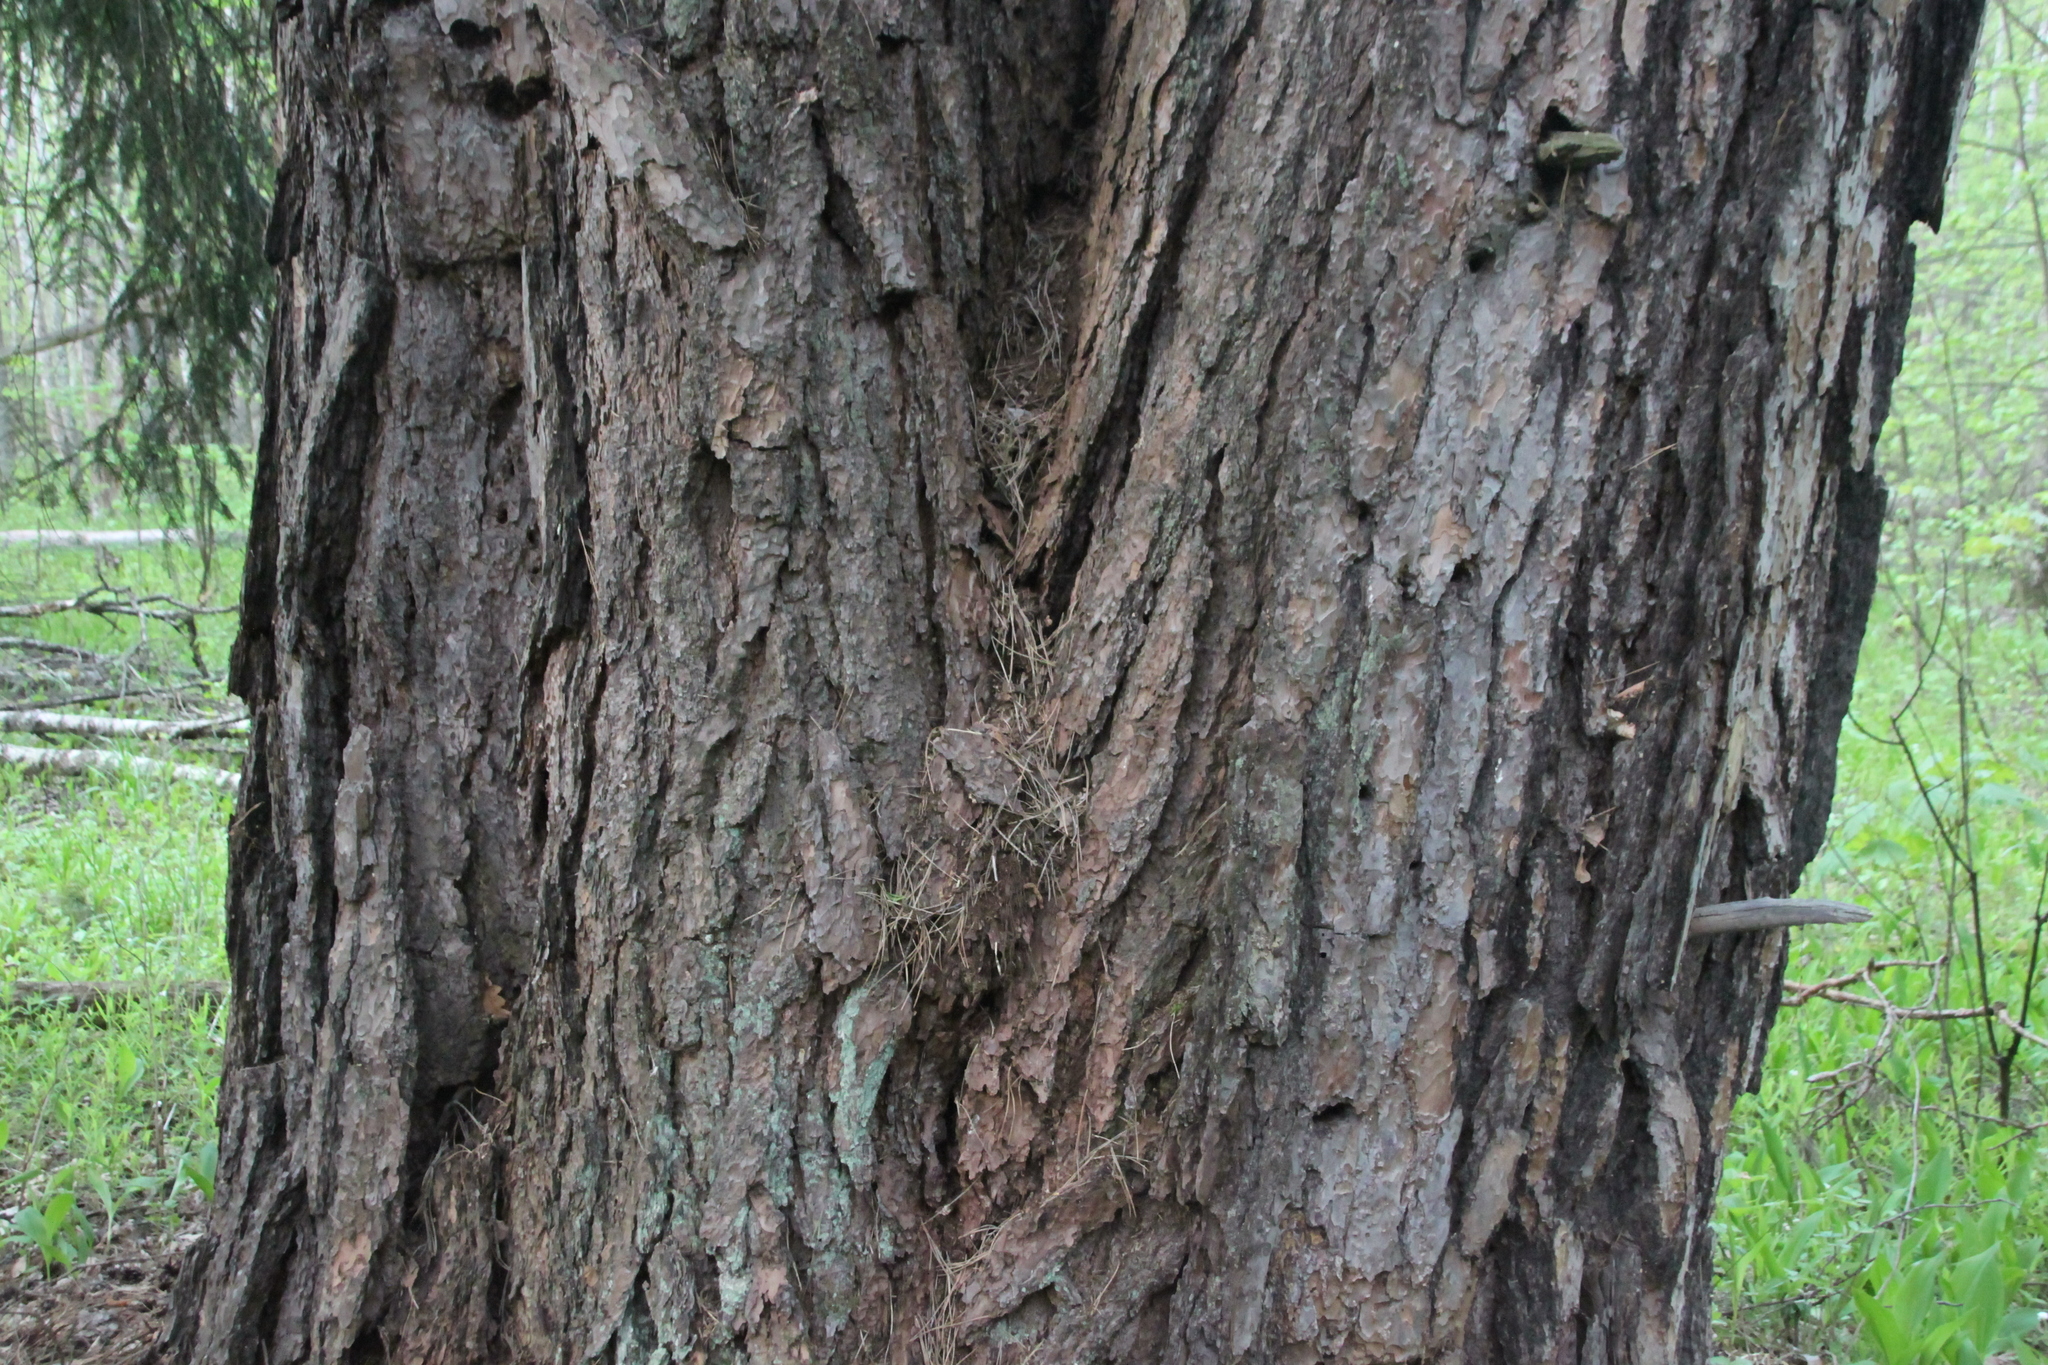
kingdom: Plantae
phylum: Tracheophyta
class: Pinopsida
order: Pinales
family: Pinaceae
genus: Pinus
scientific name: Pinus sylvestris
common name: Scots pine
